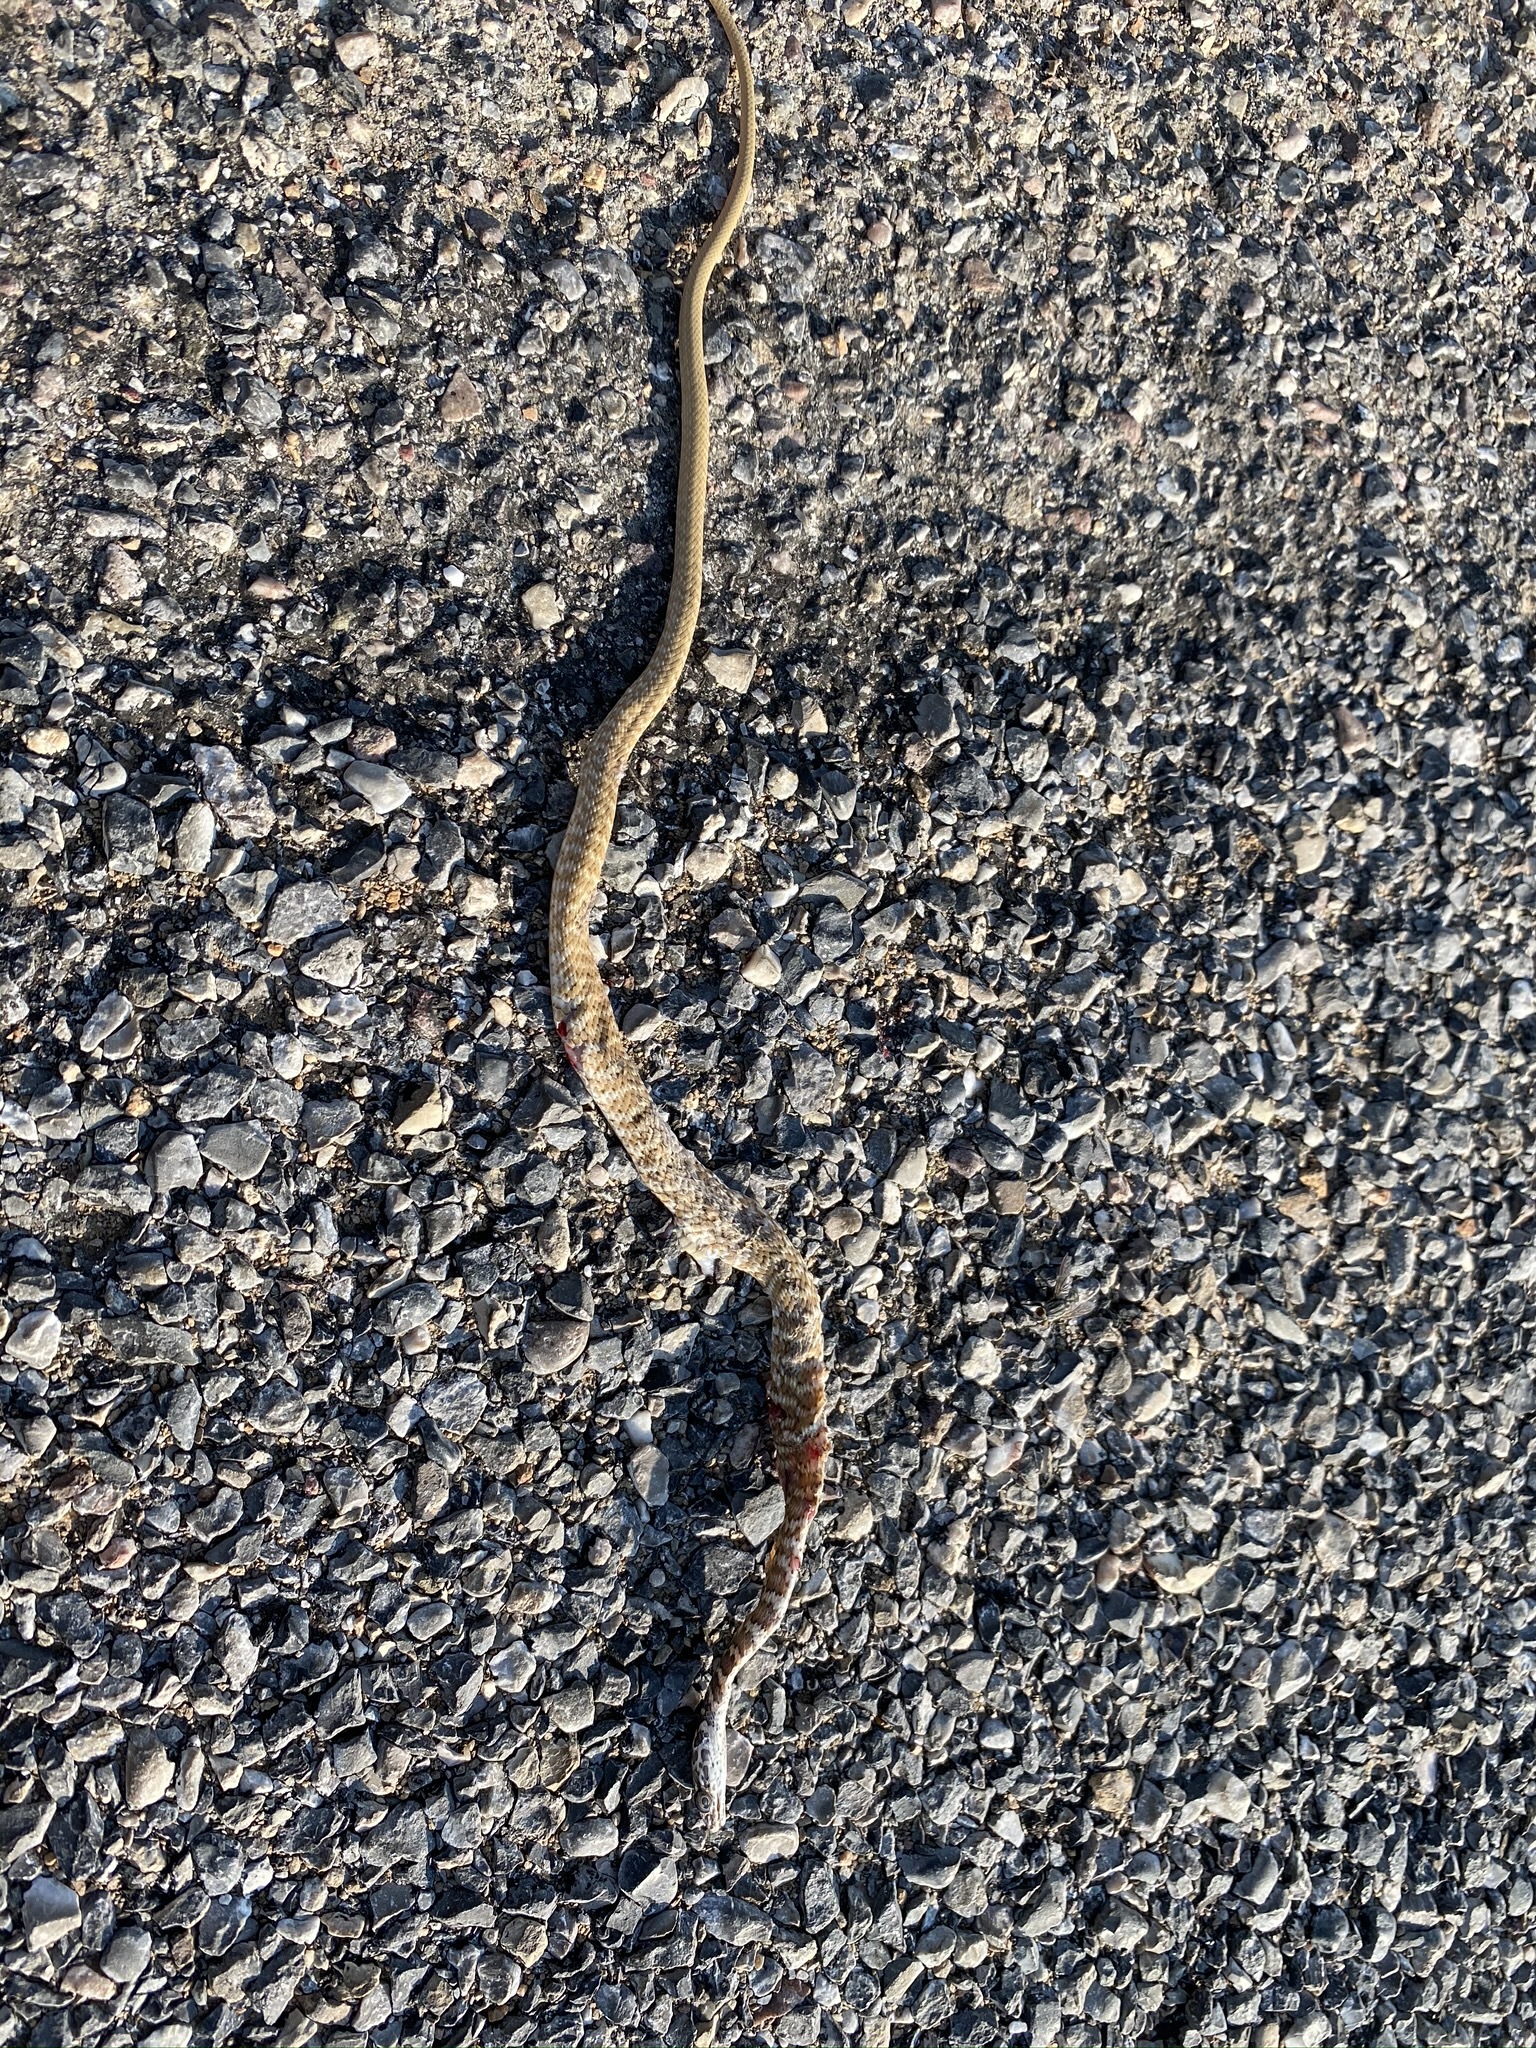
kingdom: Animalia
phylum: Chordata
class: Squamata
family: Colubridae
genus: Masticophis
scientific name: Masticophis flagellum
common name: Coachwhip
